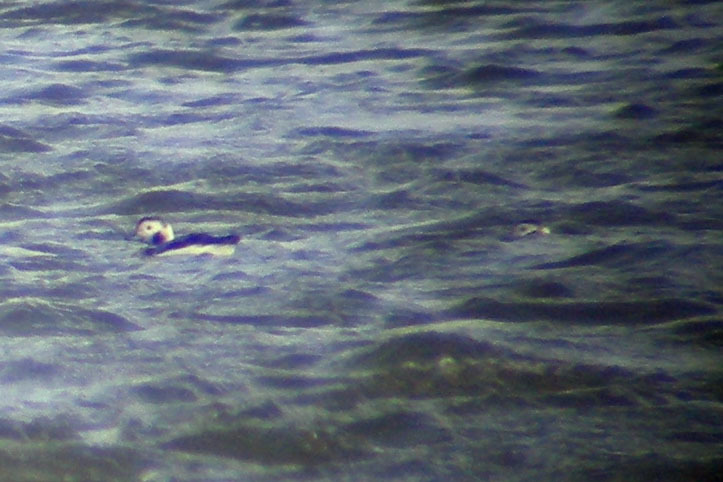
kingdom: Animalia
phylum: Chordata
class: Aves
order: Anseriformes
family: Anatidae
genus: Clangula
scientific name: Clangula hyemalis
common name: Long-tailed duck
